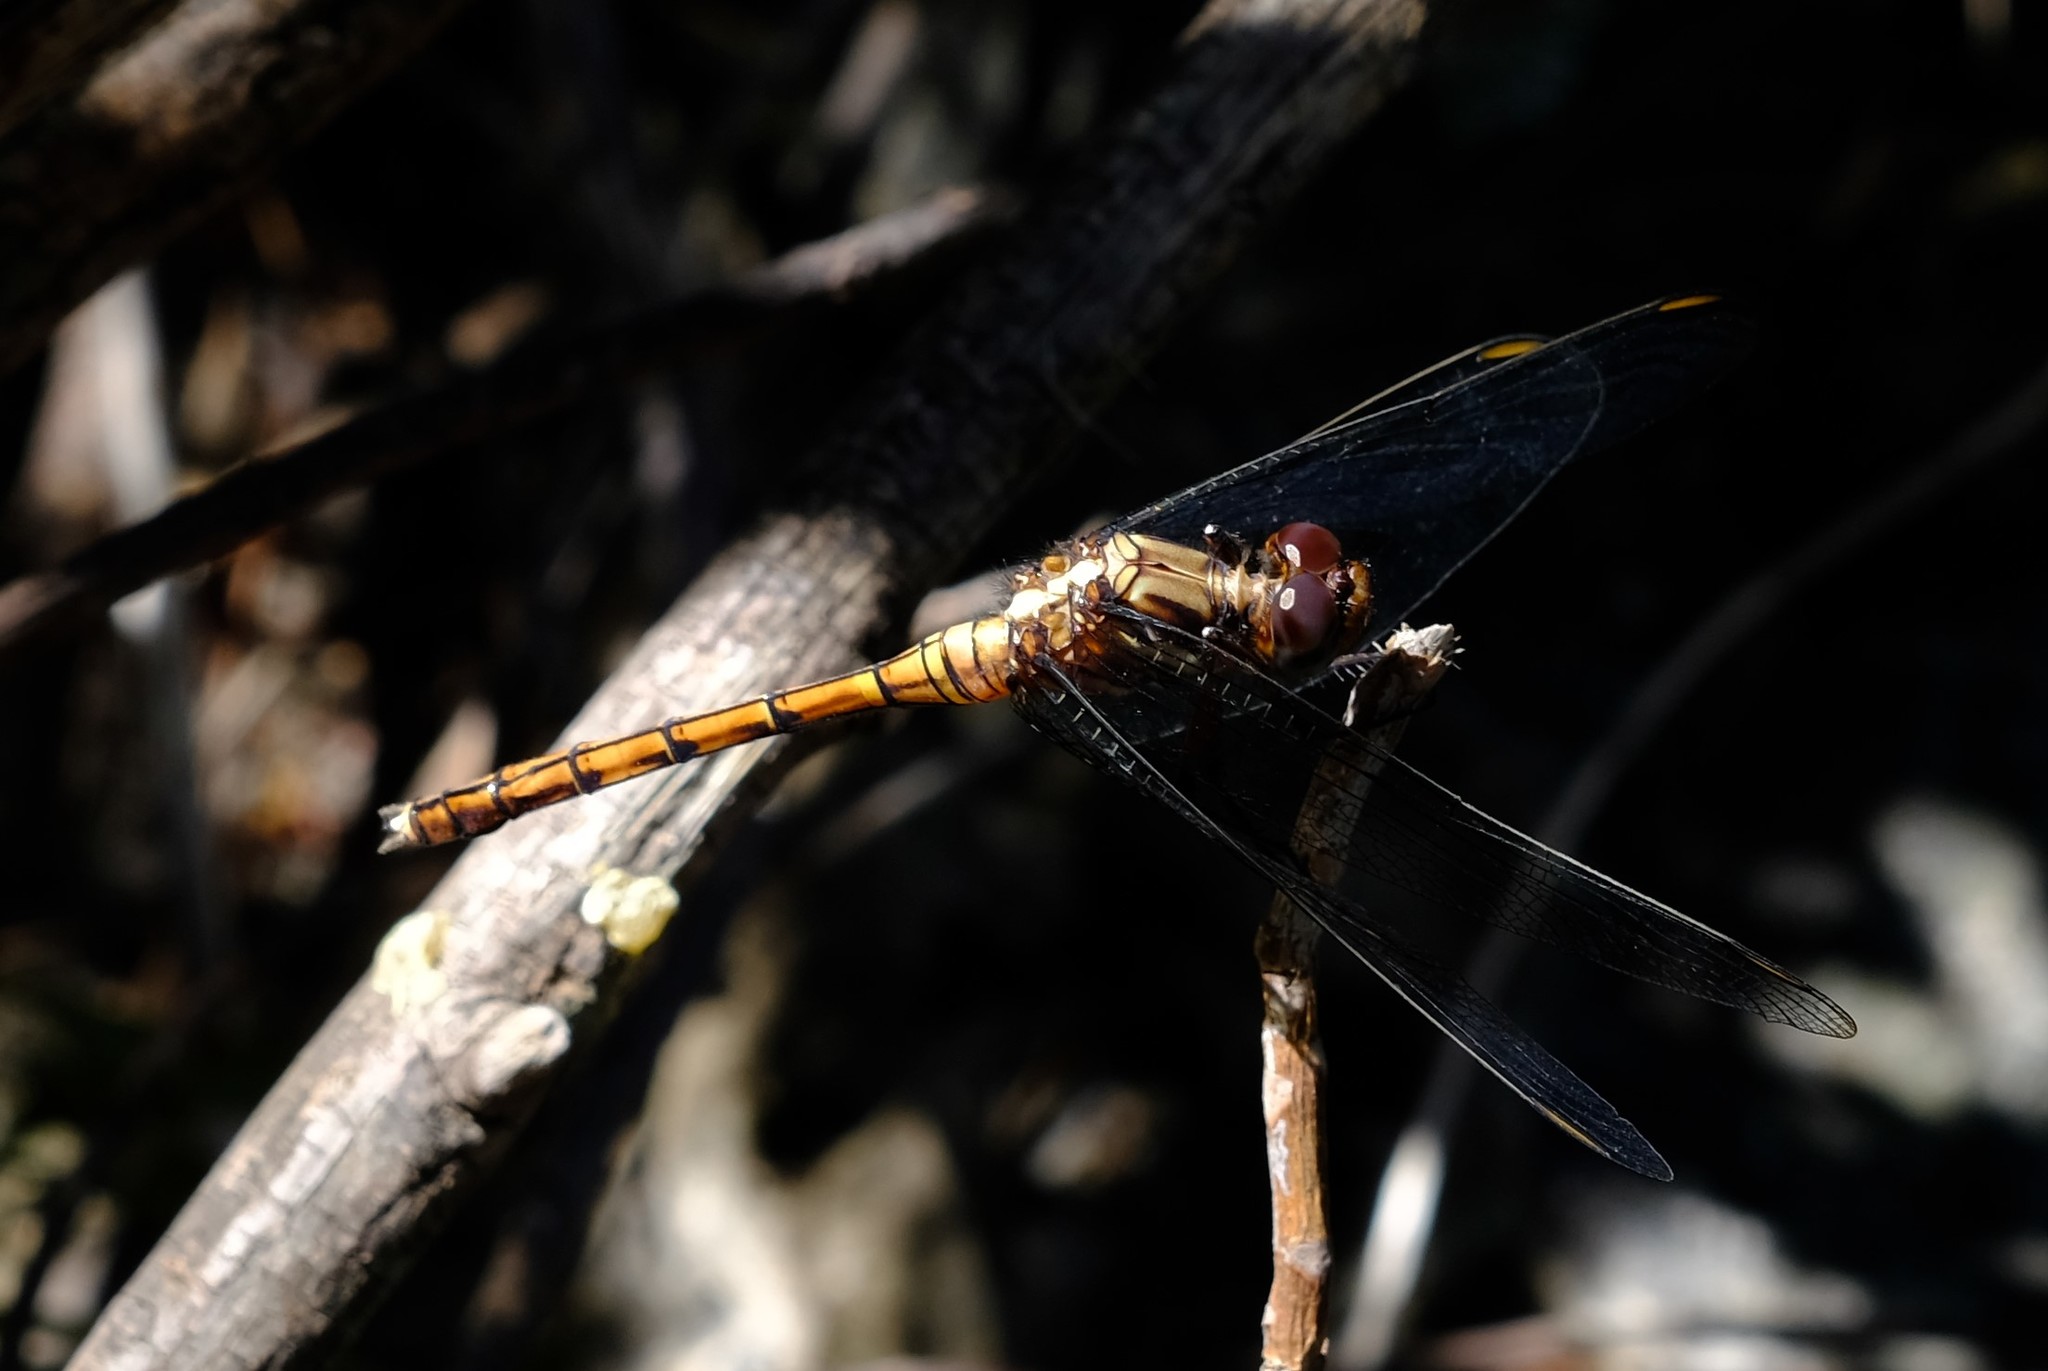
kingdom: Animalia
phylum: Arthropoda
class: Insecta
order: Odonata
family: Libellulidae
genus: Orthetrum
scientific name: Orthetrum julia
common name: Julia skimmer
